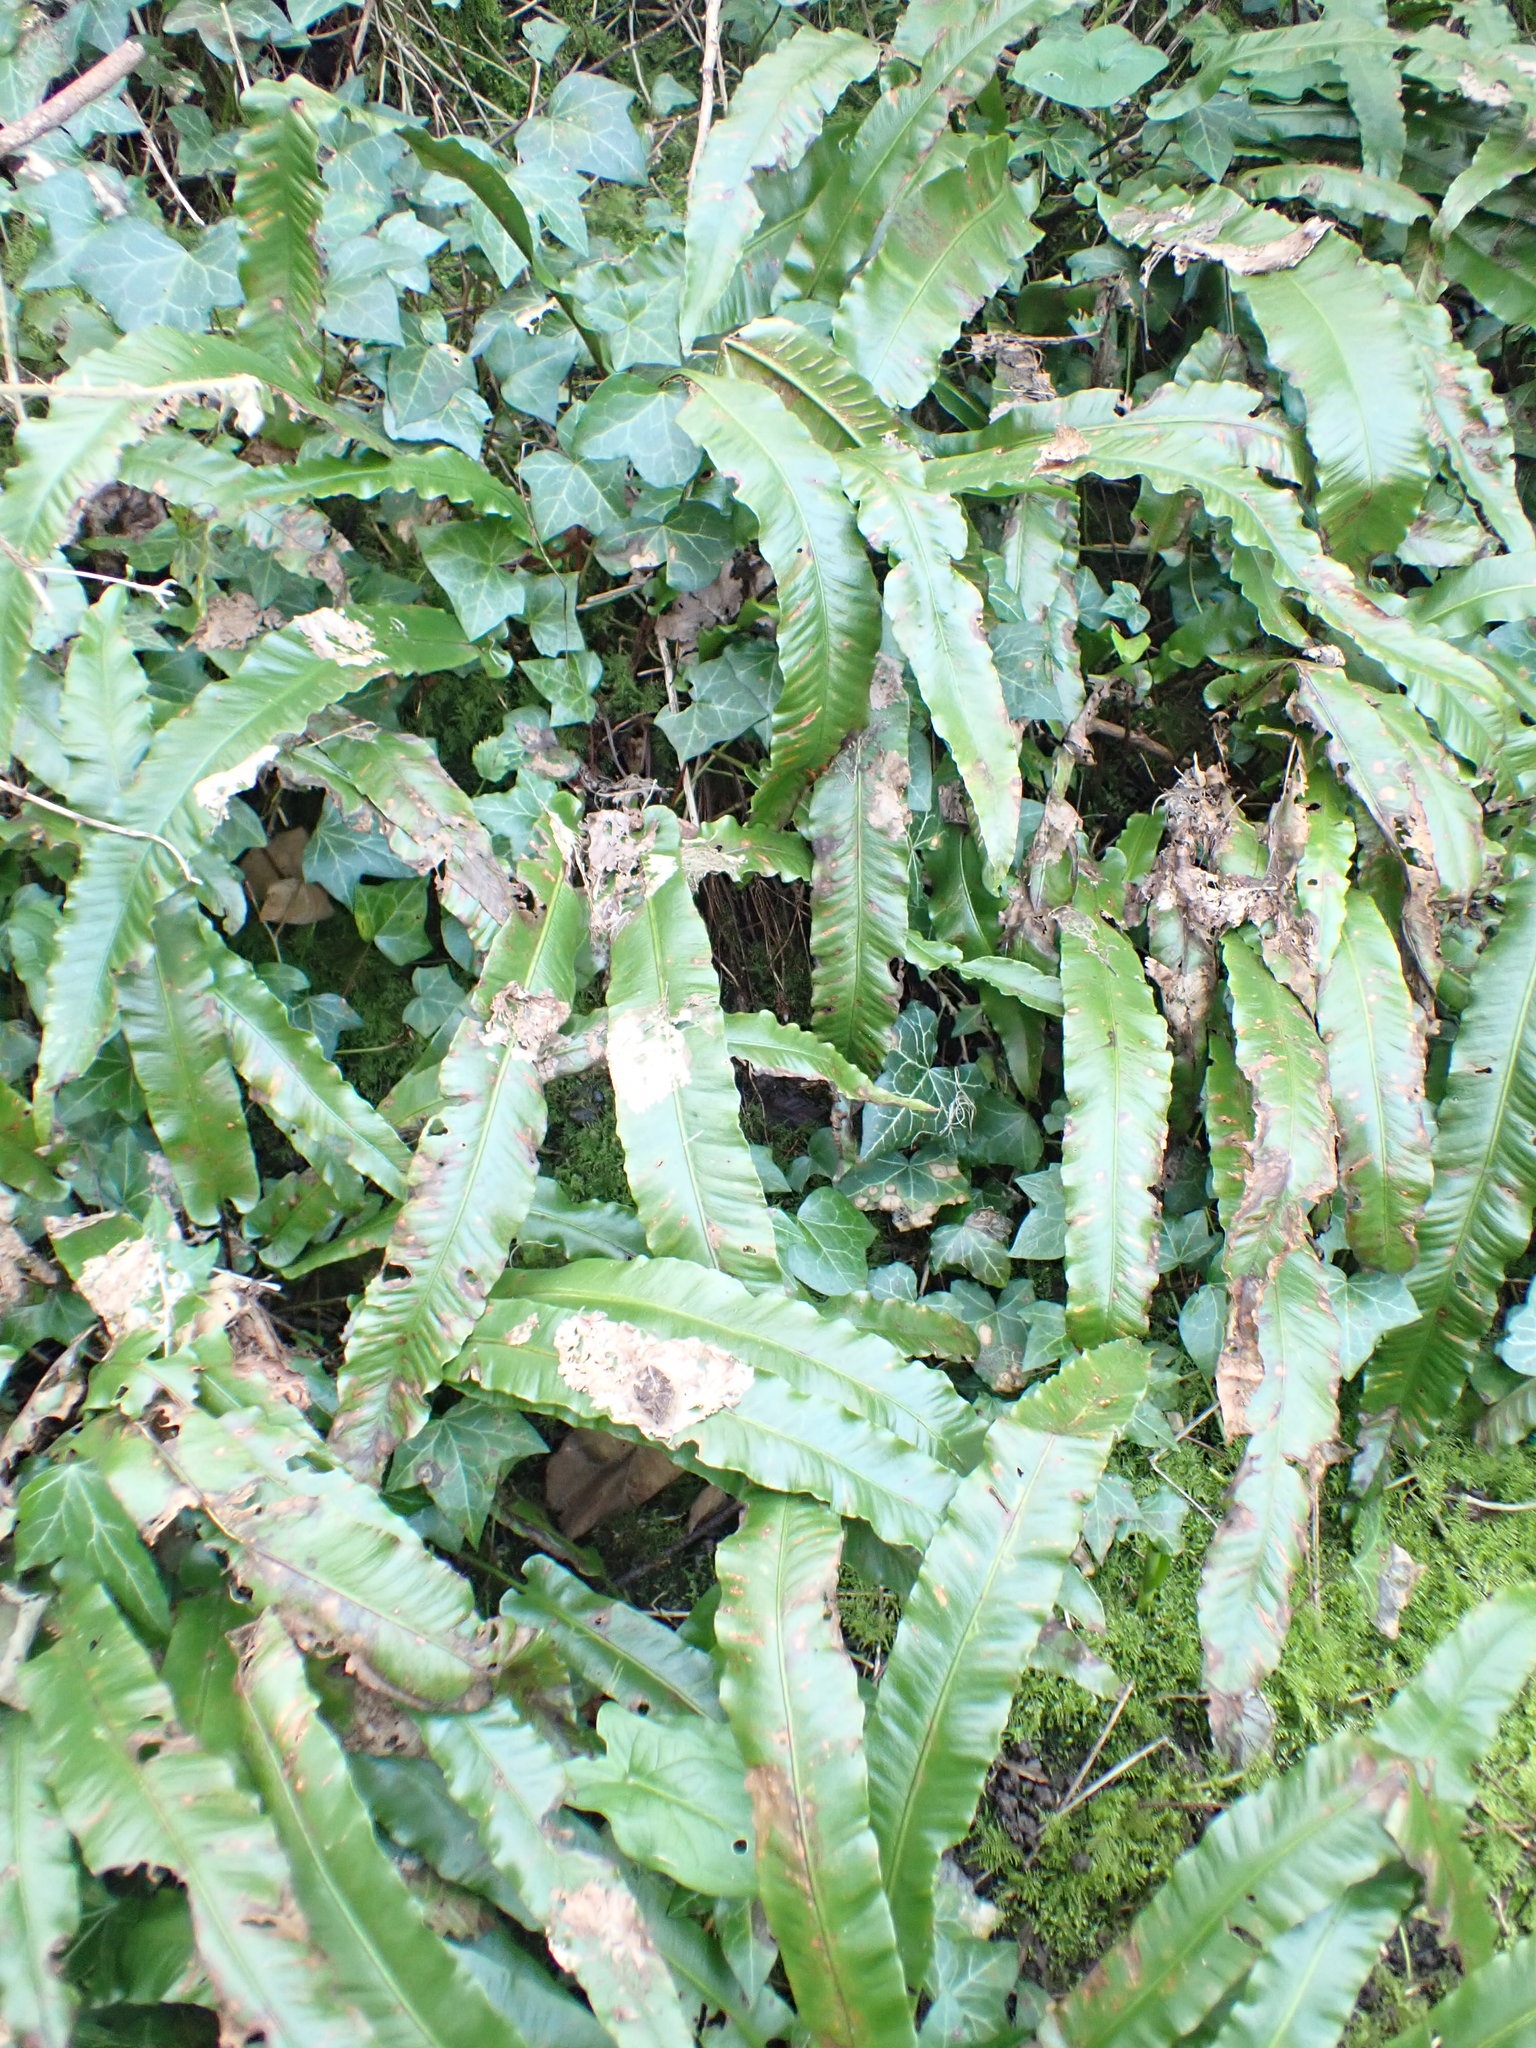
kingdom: Plantae
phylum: Tracheophyta
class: Polypodiopsida
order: Polypodiales
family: Aspleniaceae
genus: Asplenium
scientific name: Asplenium scolopendrium
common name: Hart's-tongue fern
